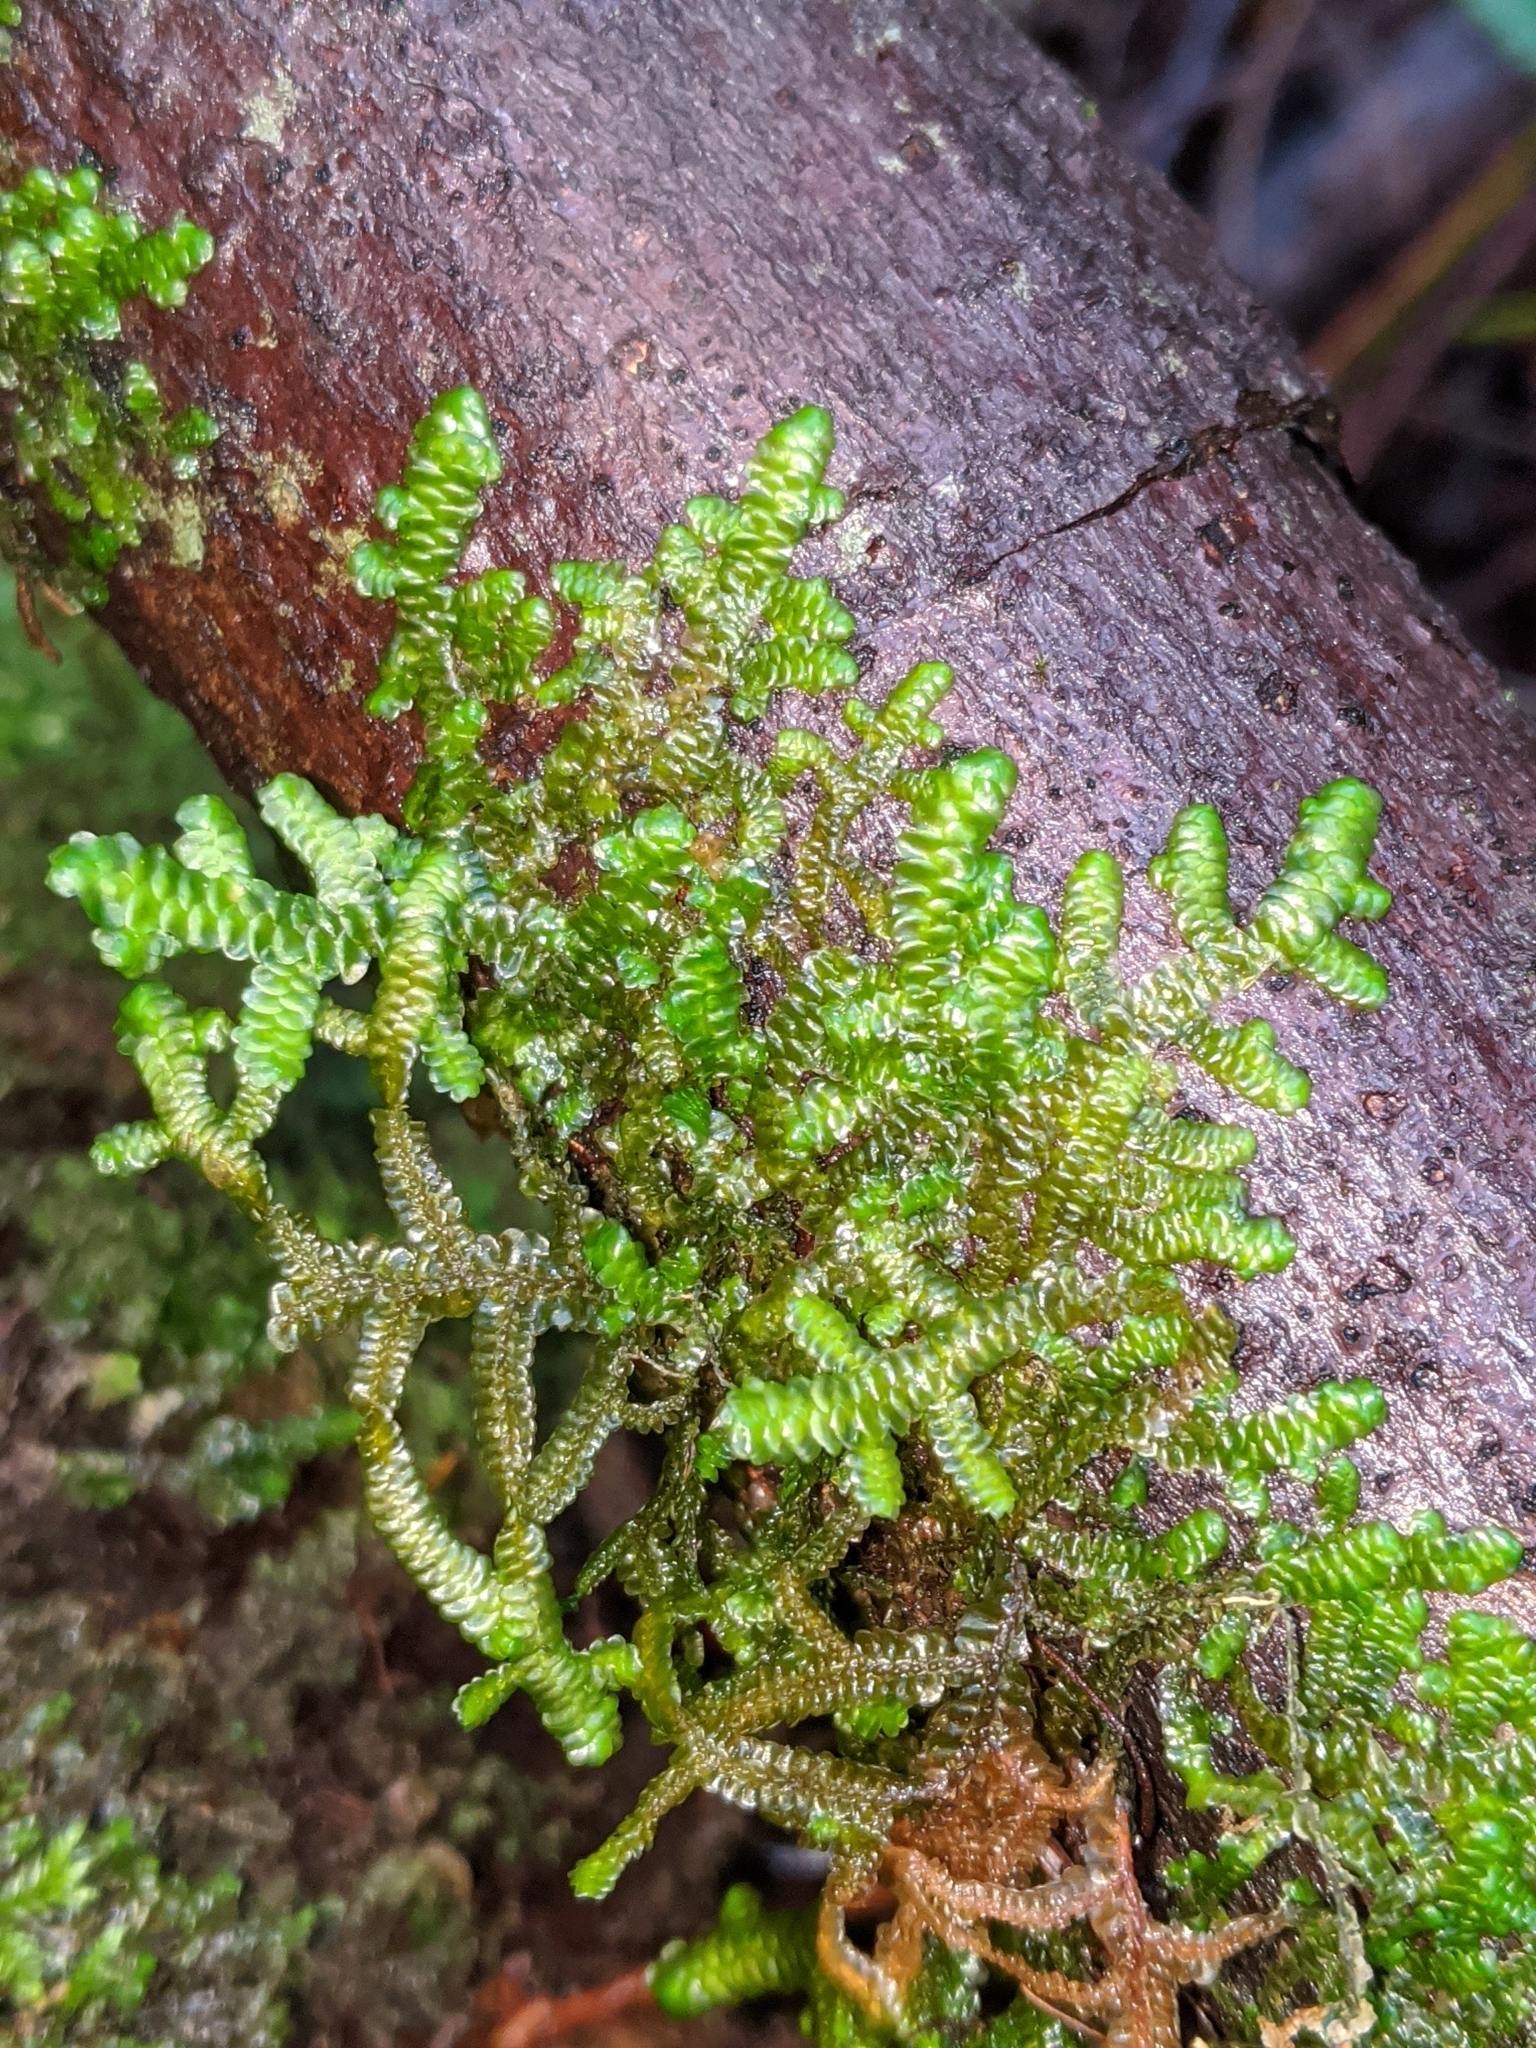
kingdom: Plantae
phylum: Marchantiophyta
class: Jungermanniopsida
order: Porellales
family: Porellaceae
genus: Porella
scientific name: Porella navicularis
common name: Tree ruffle liverwort
